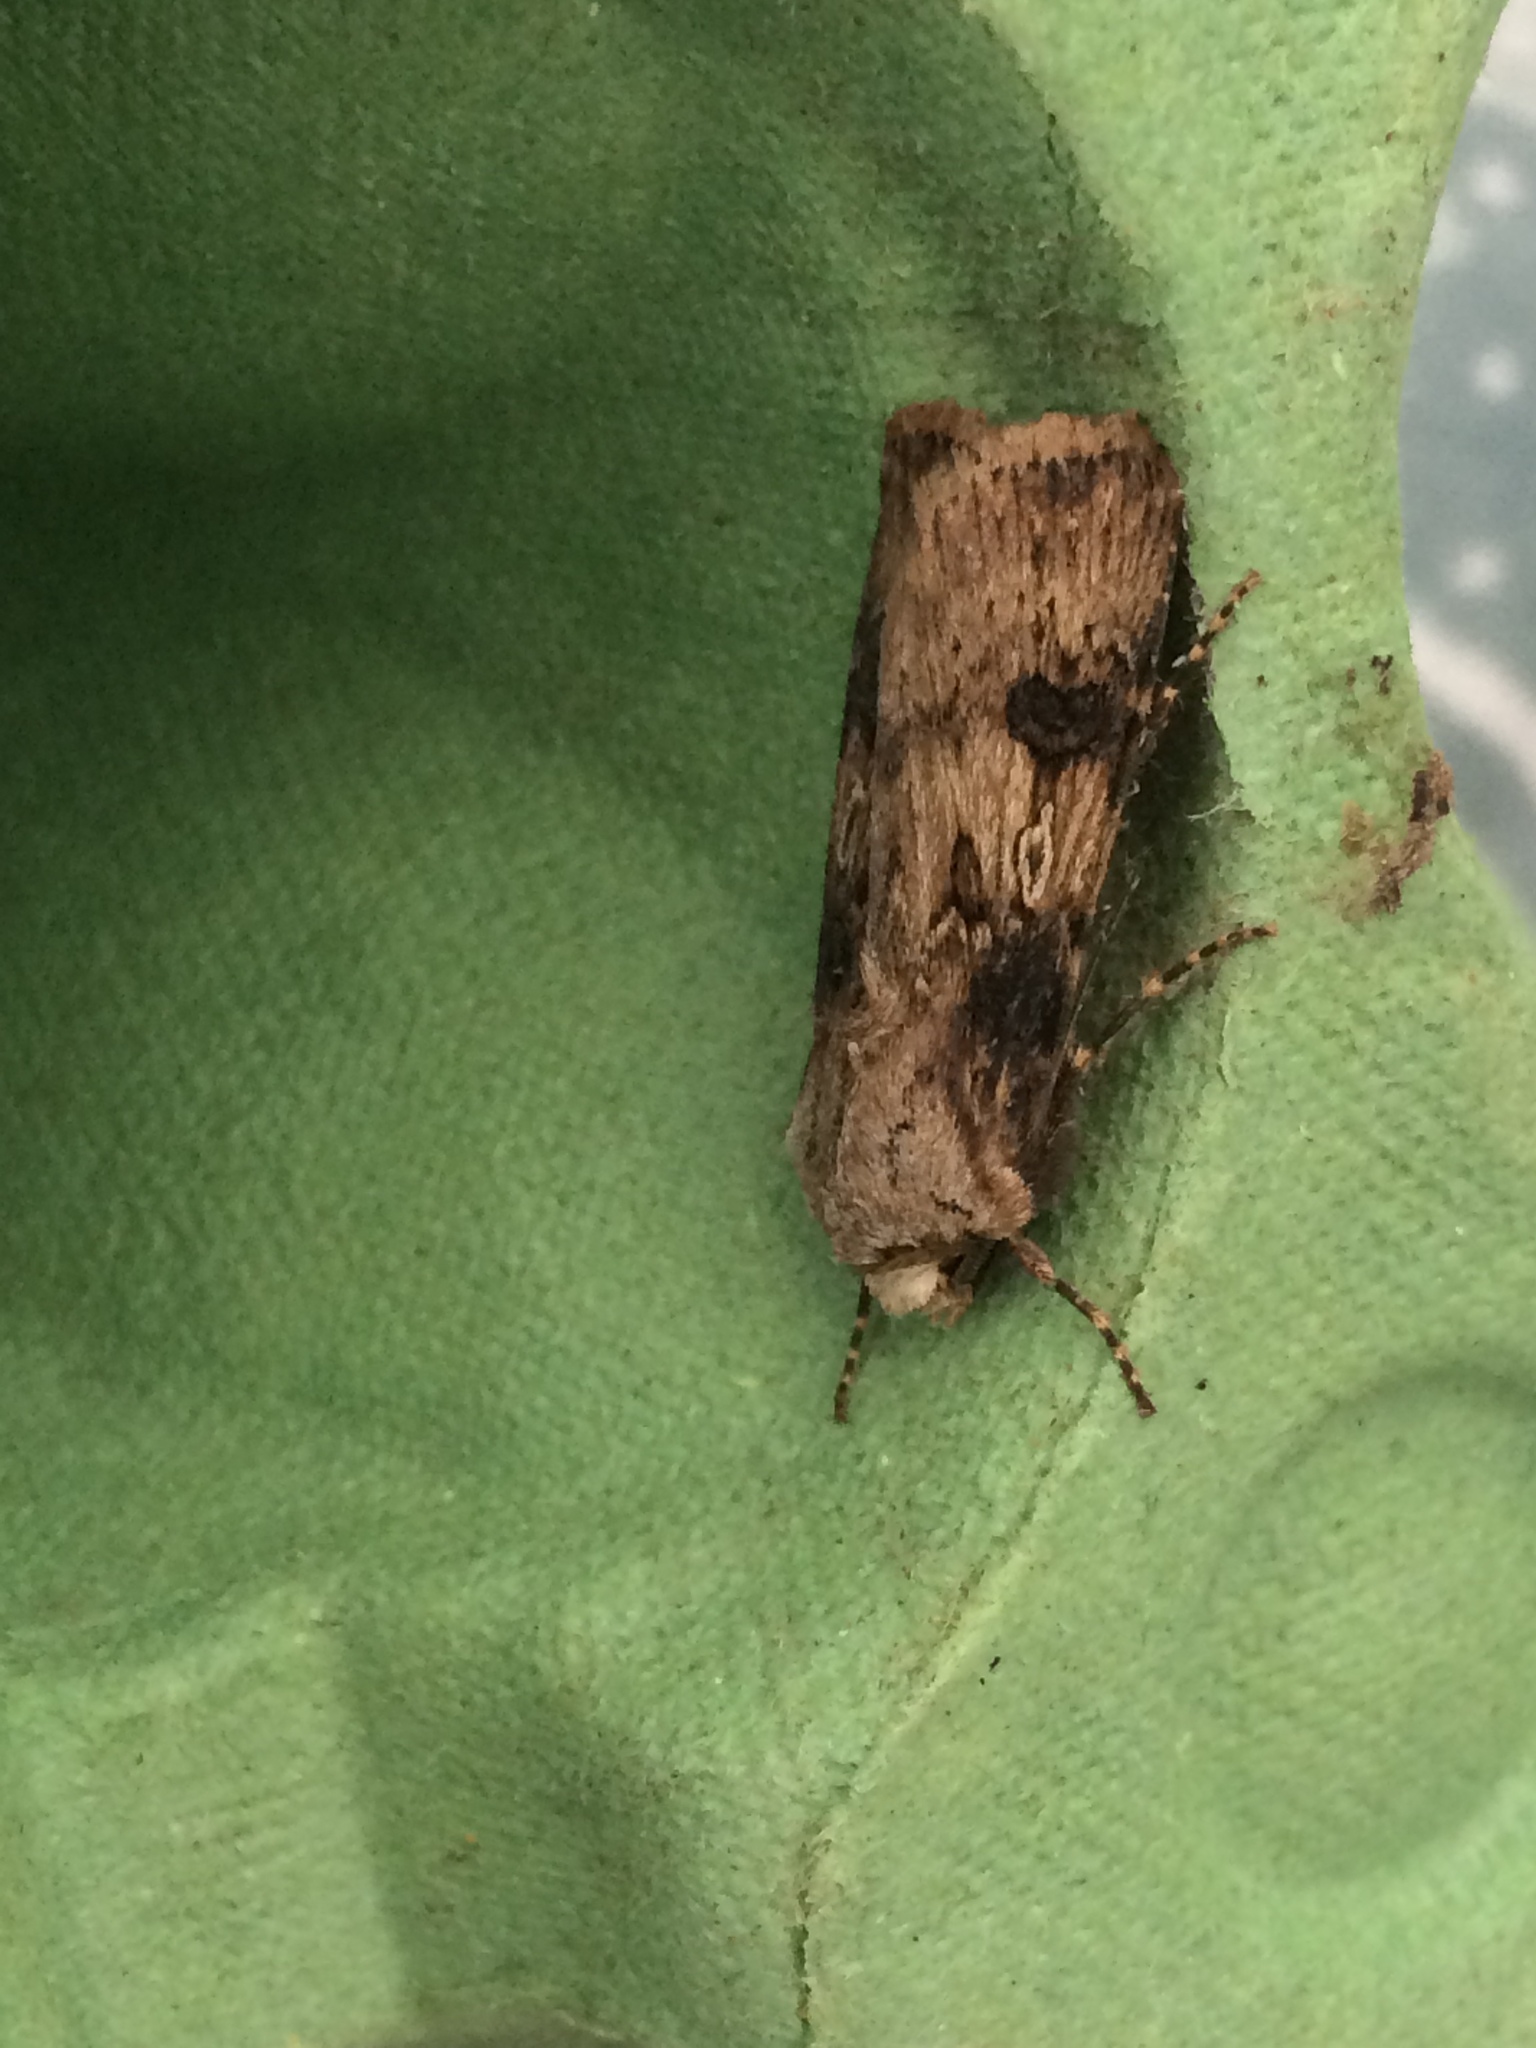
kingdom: Animalia
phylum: Arthropoda
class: Insecta
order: Lepidoptera
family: Noctuidae
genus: Agrotis
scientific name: Agrotis puta
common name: Shuttle-shaped dart
